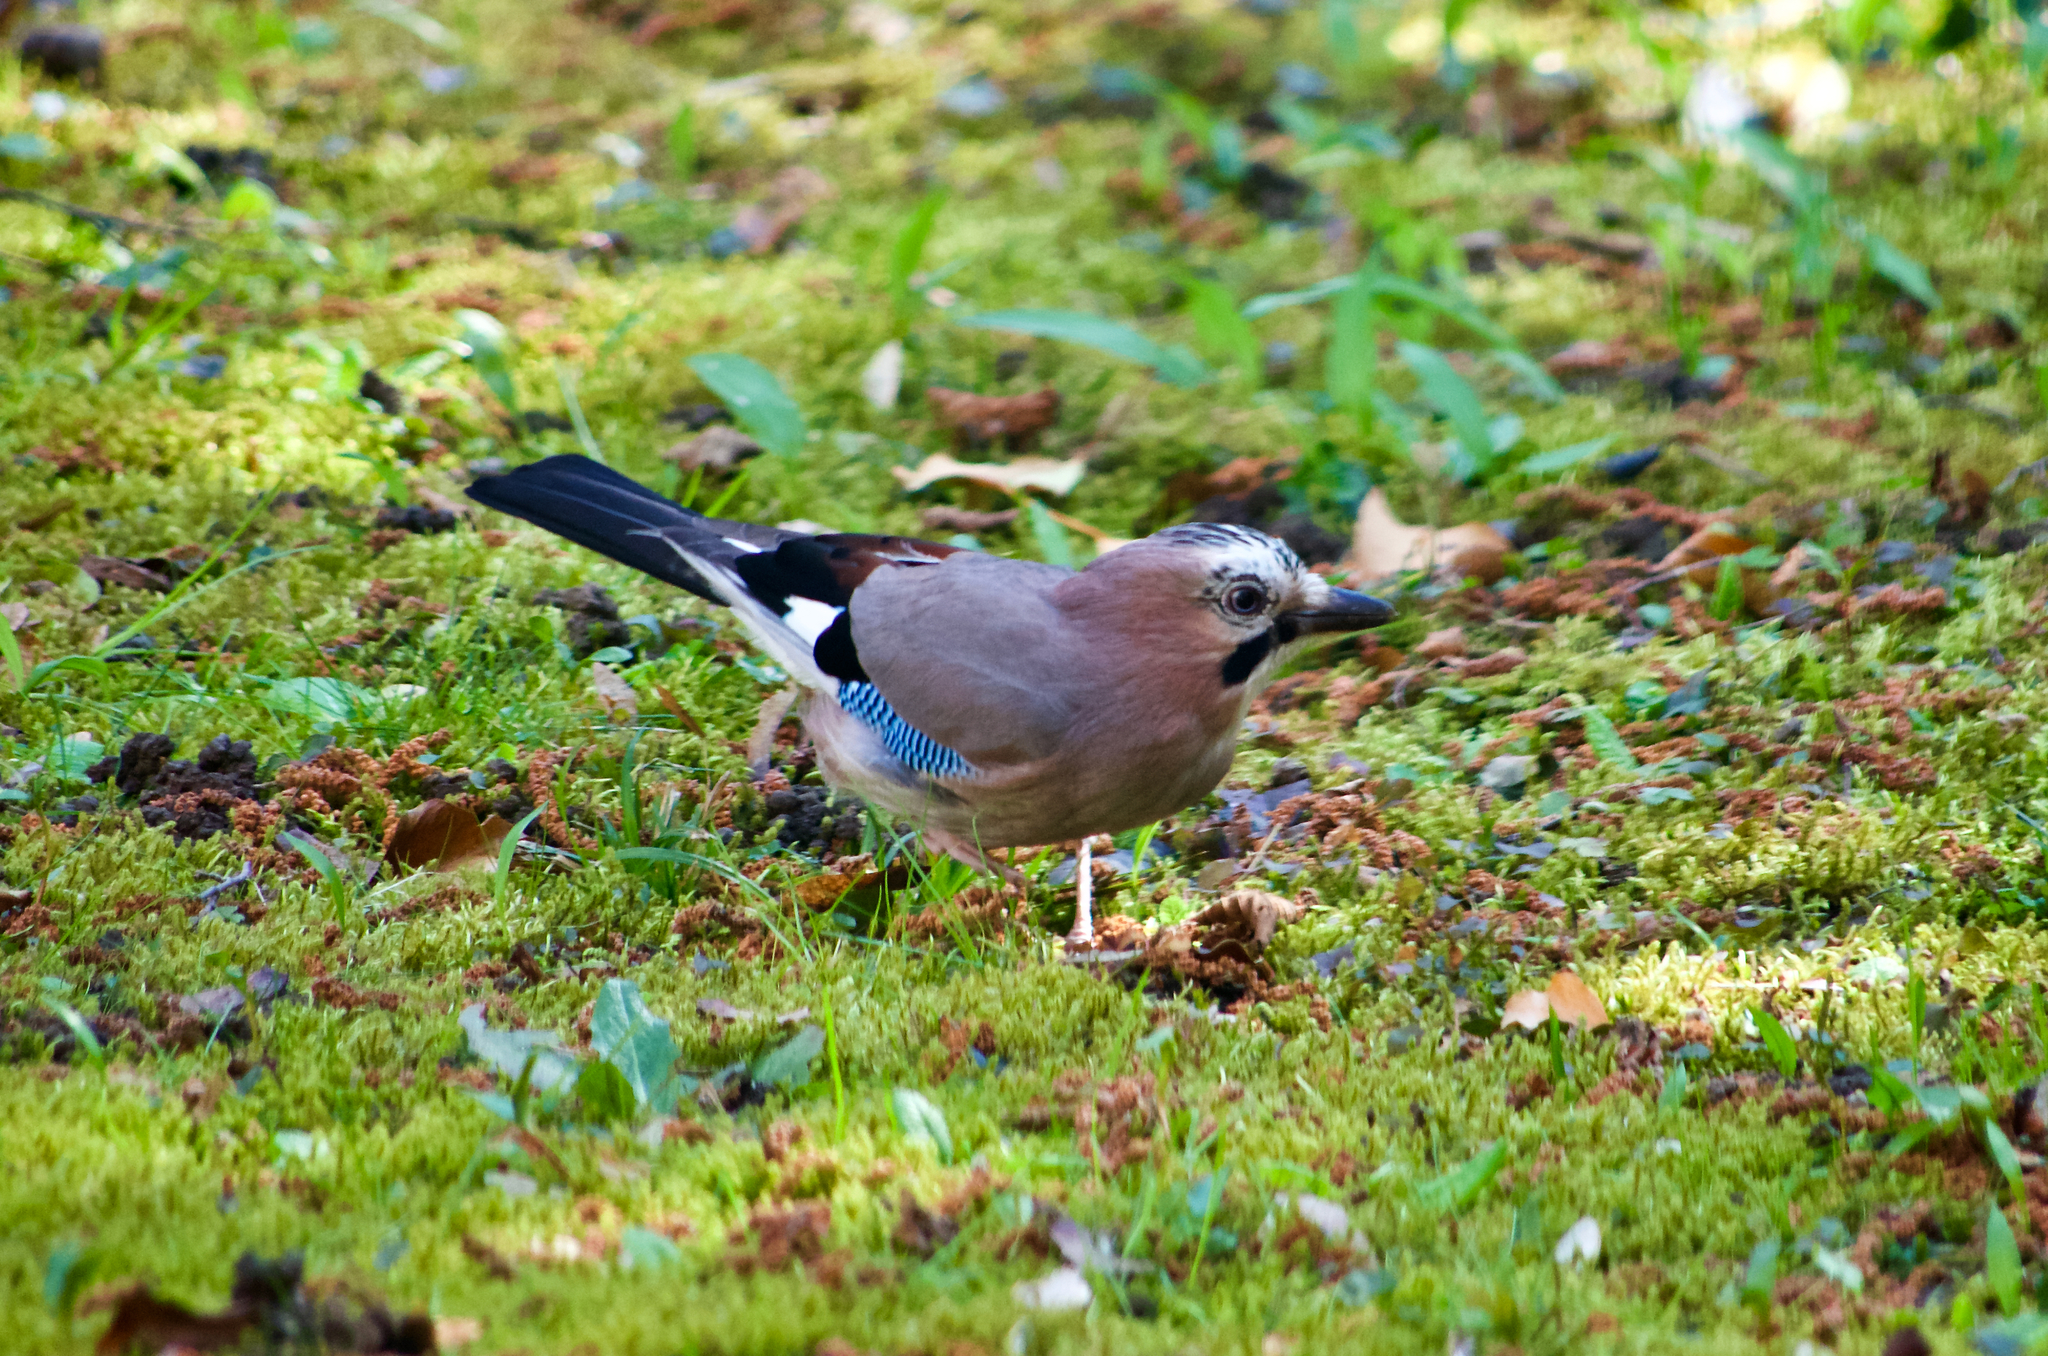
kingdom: Animalia
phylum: Chordata
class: Aves
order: Passeriformes
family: Corvidae
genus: Garrulus
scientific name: Garrulus glandarius
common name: Eurasian jay
